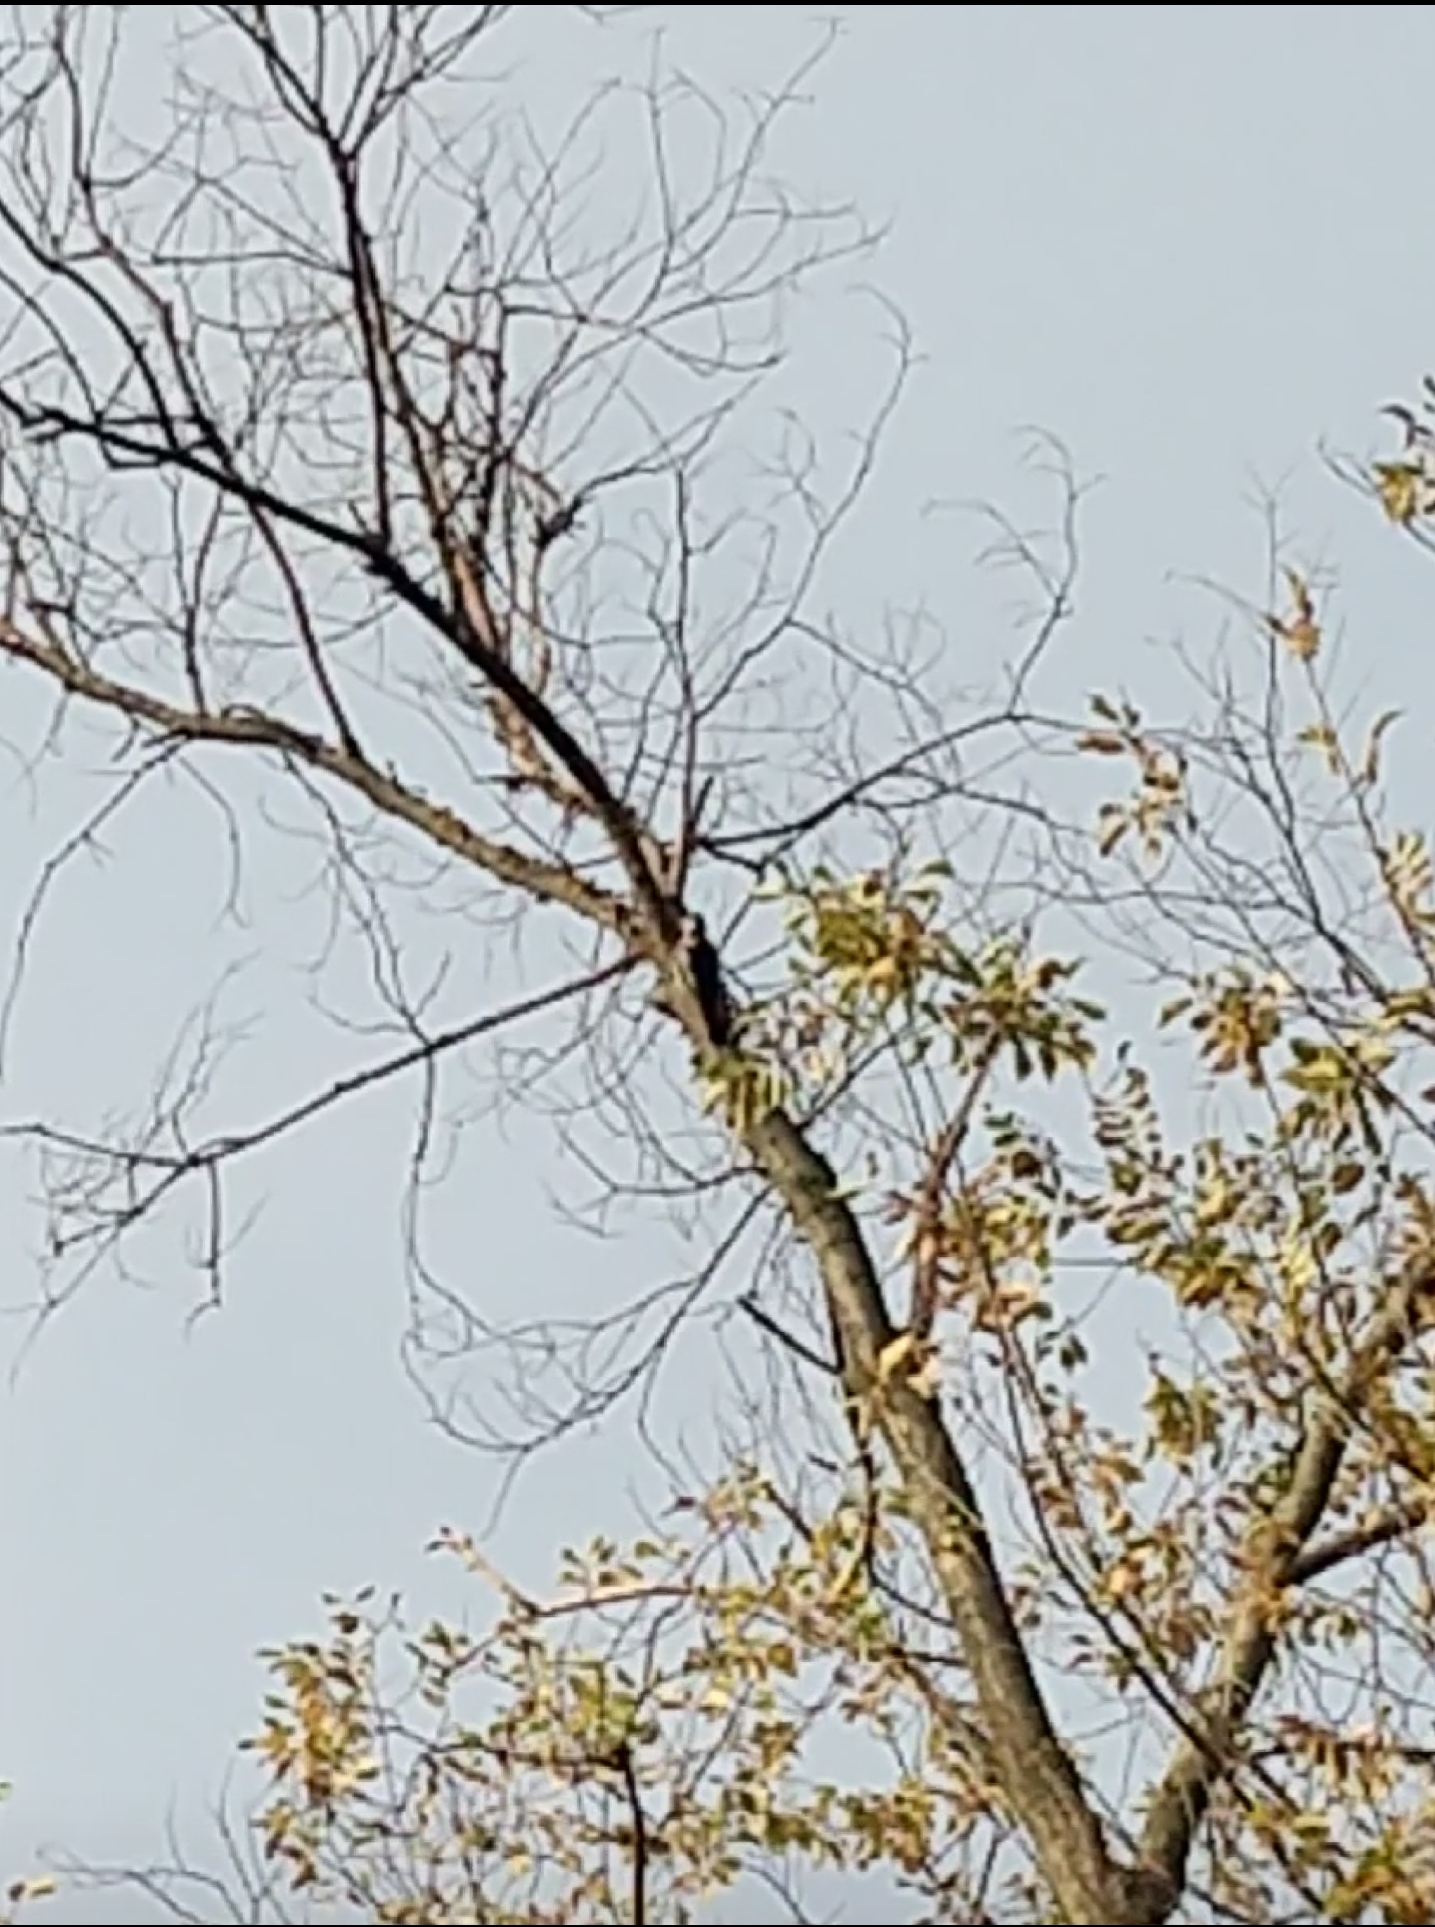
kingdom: Animalia
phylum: Chordata
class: Aves
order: Piciformes
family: Picidae
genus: Dendrocopos
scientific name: Dendrocopos
